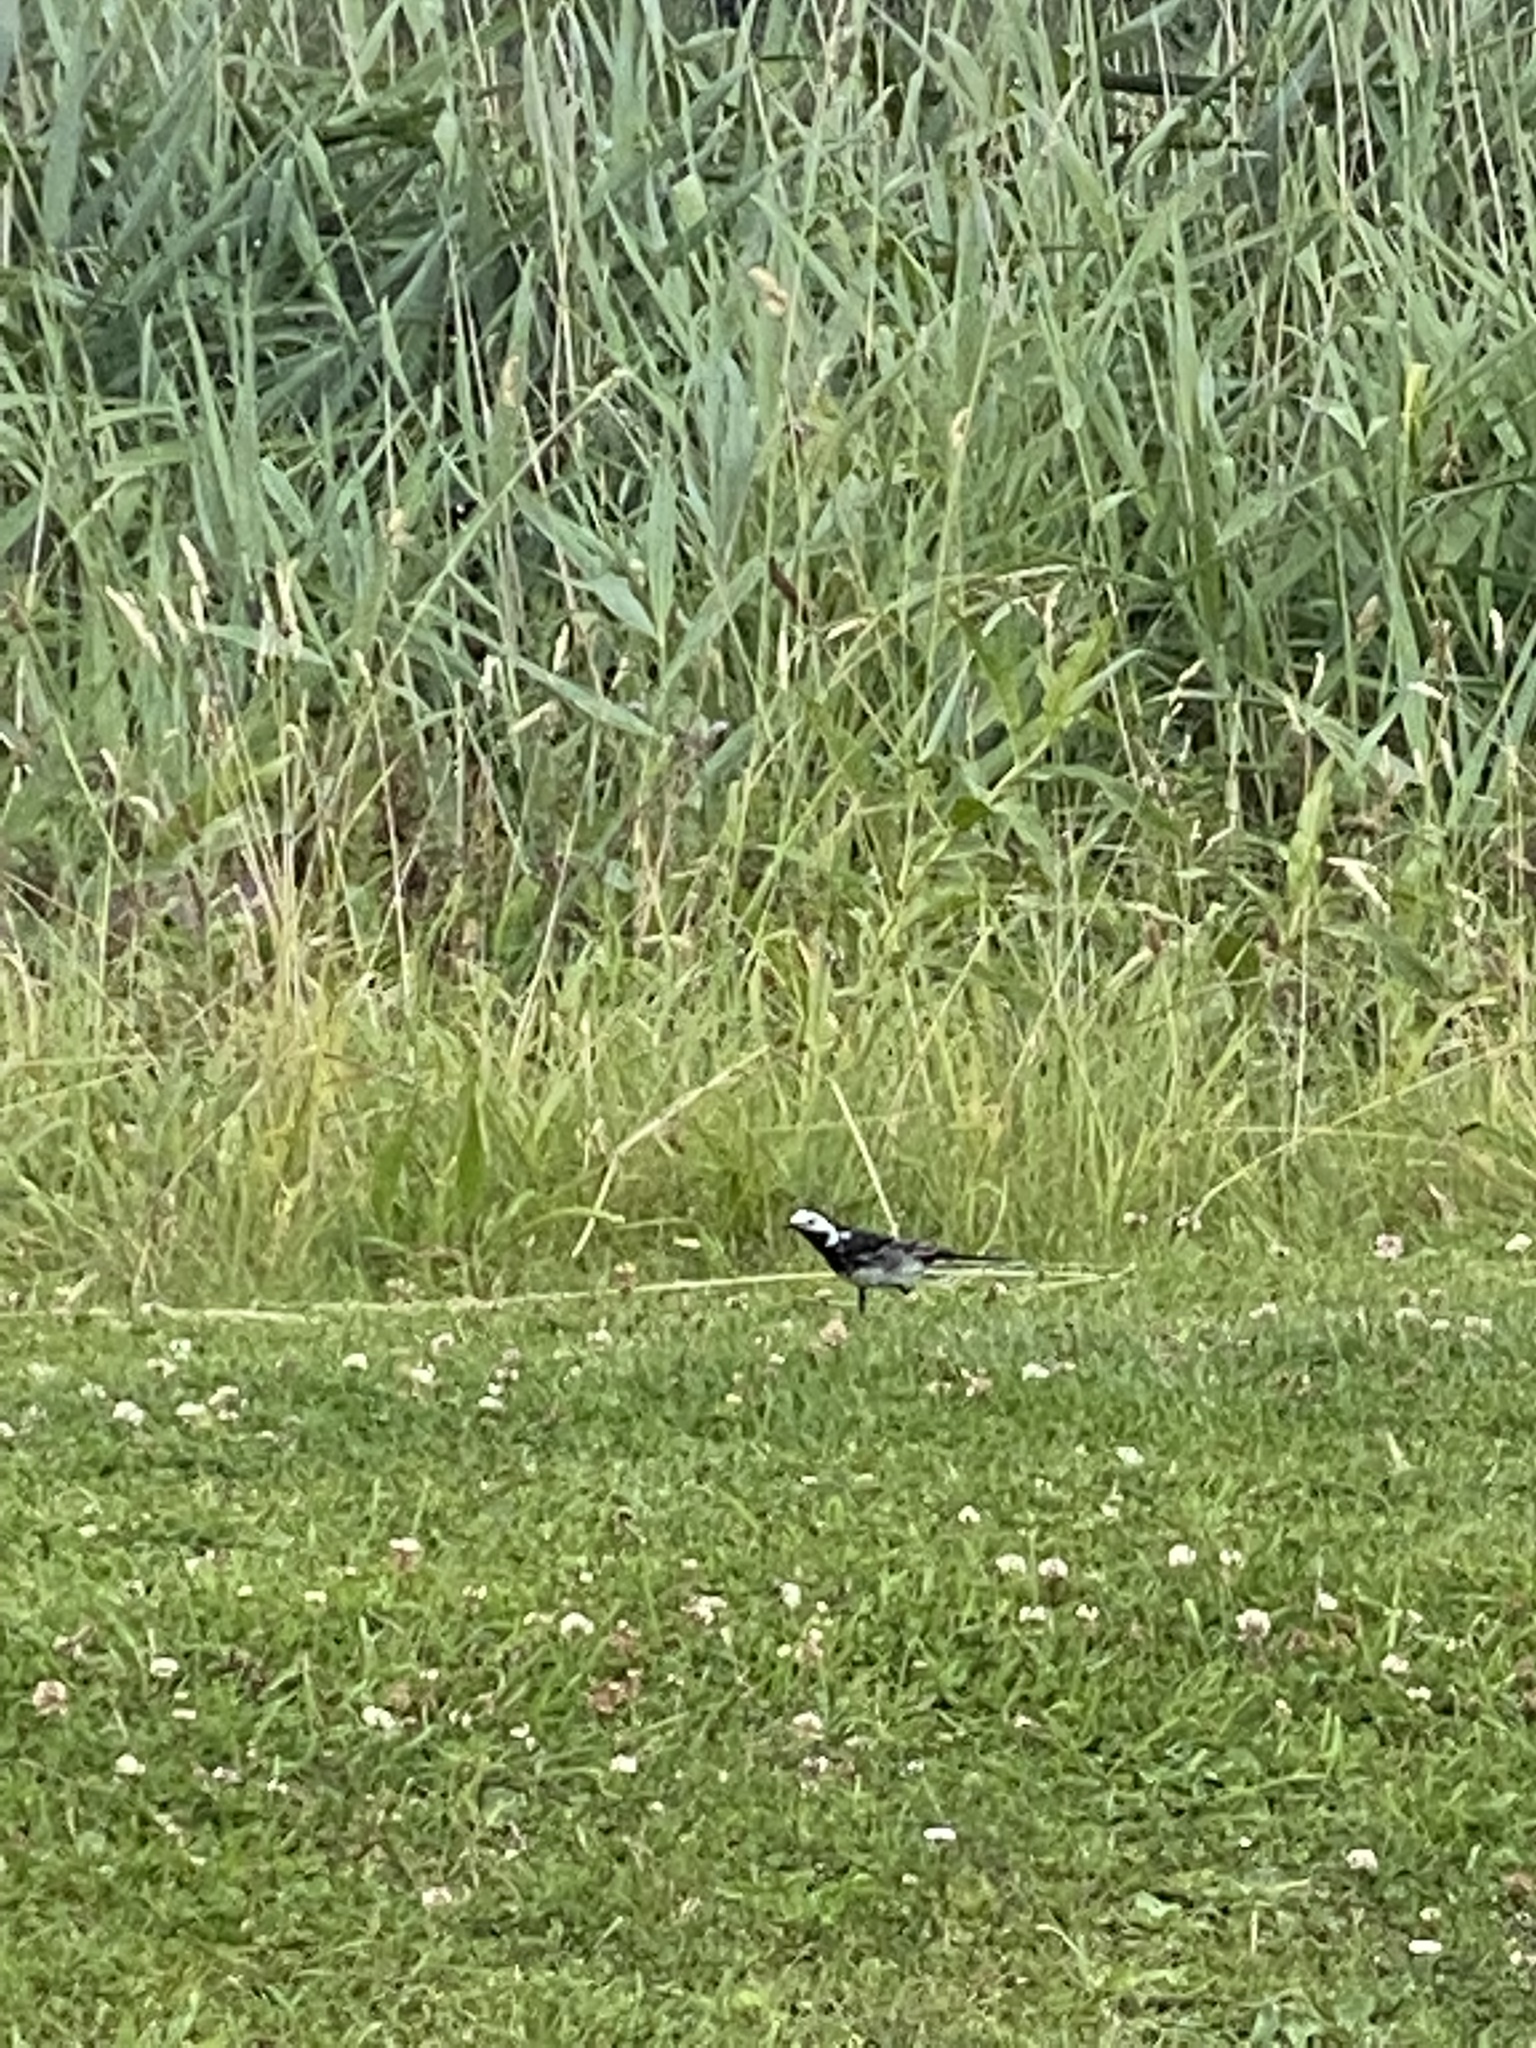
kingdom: Animalia
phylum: Chordata
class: Aves
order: Passeriformes
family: Motacillidae
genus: Motacilla
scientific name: Motacilla alba
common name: White wagtail
